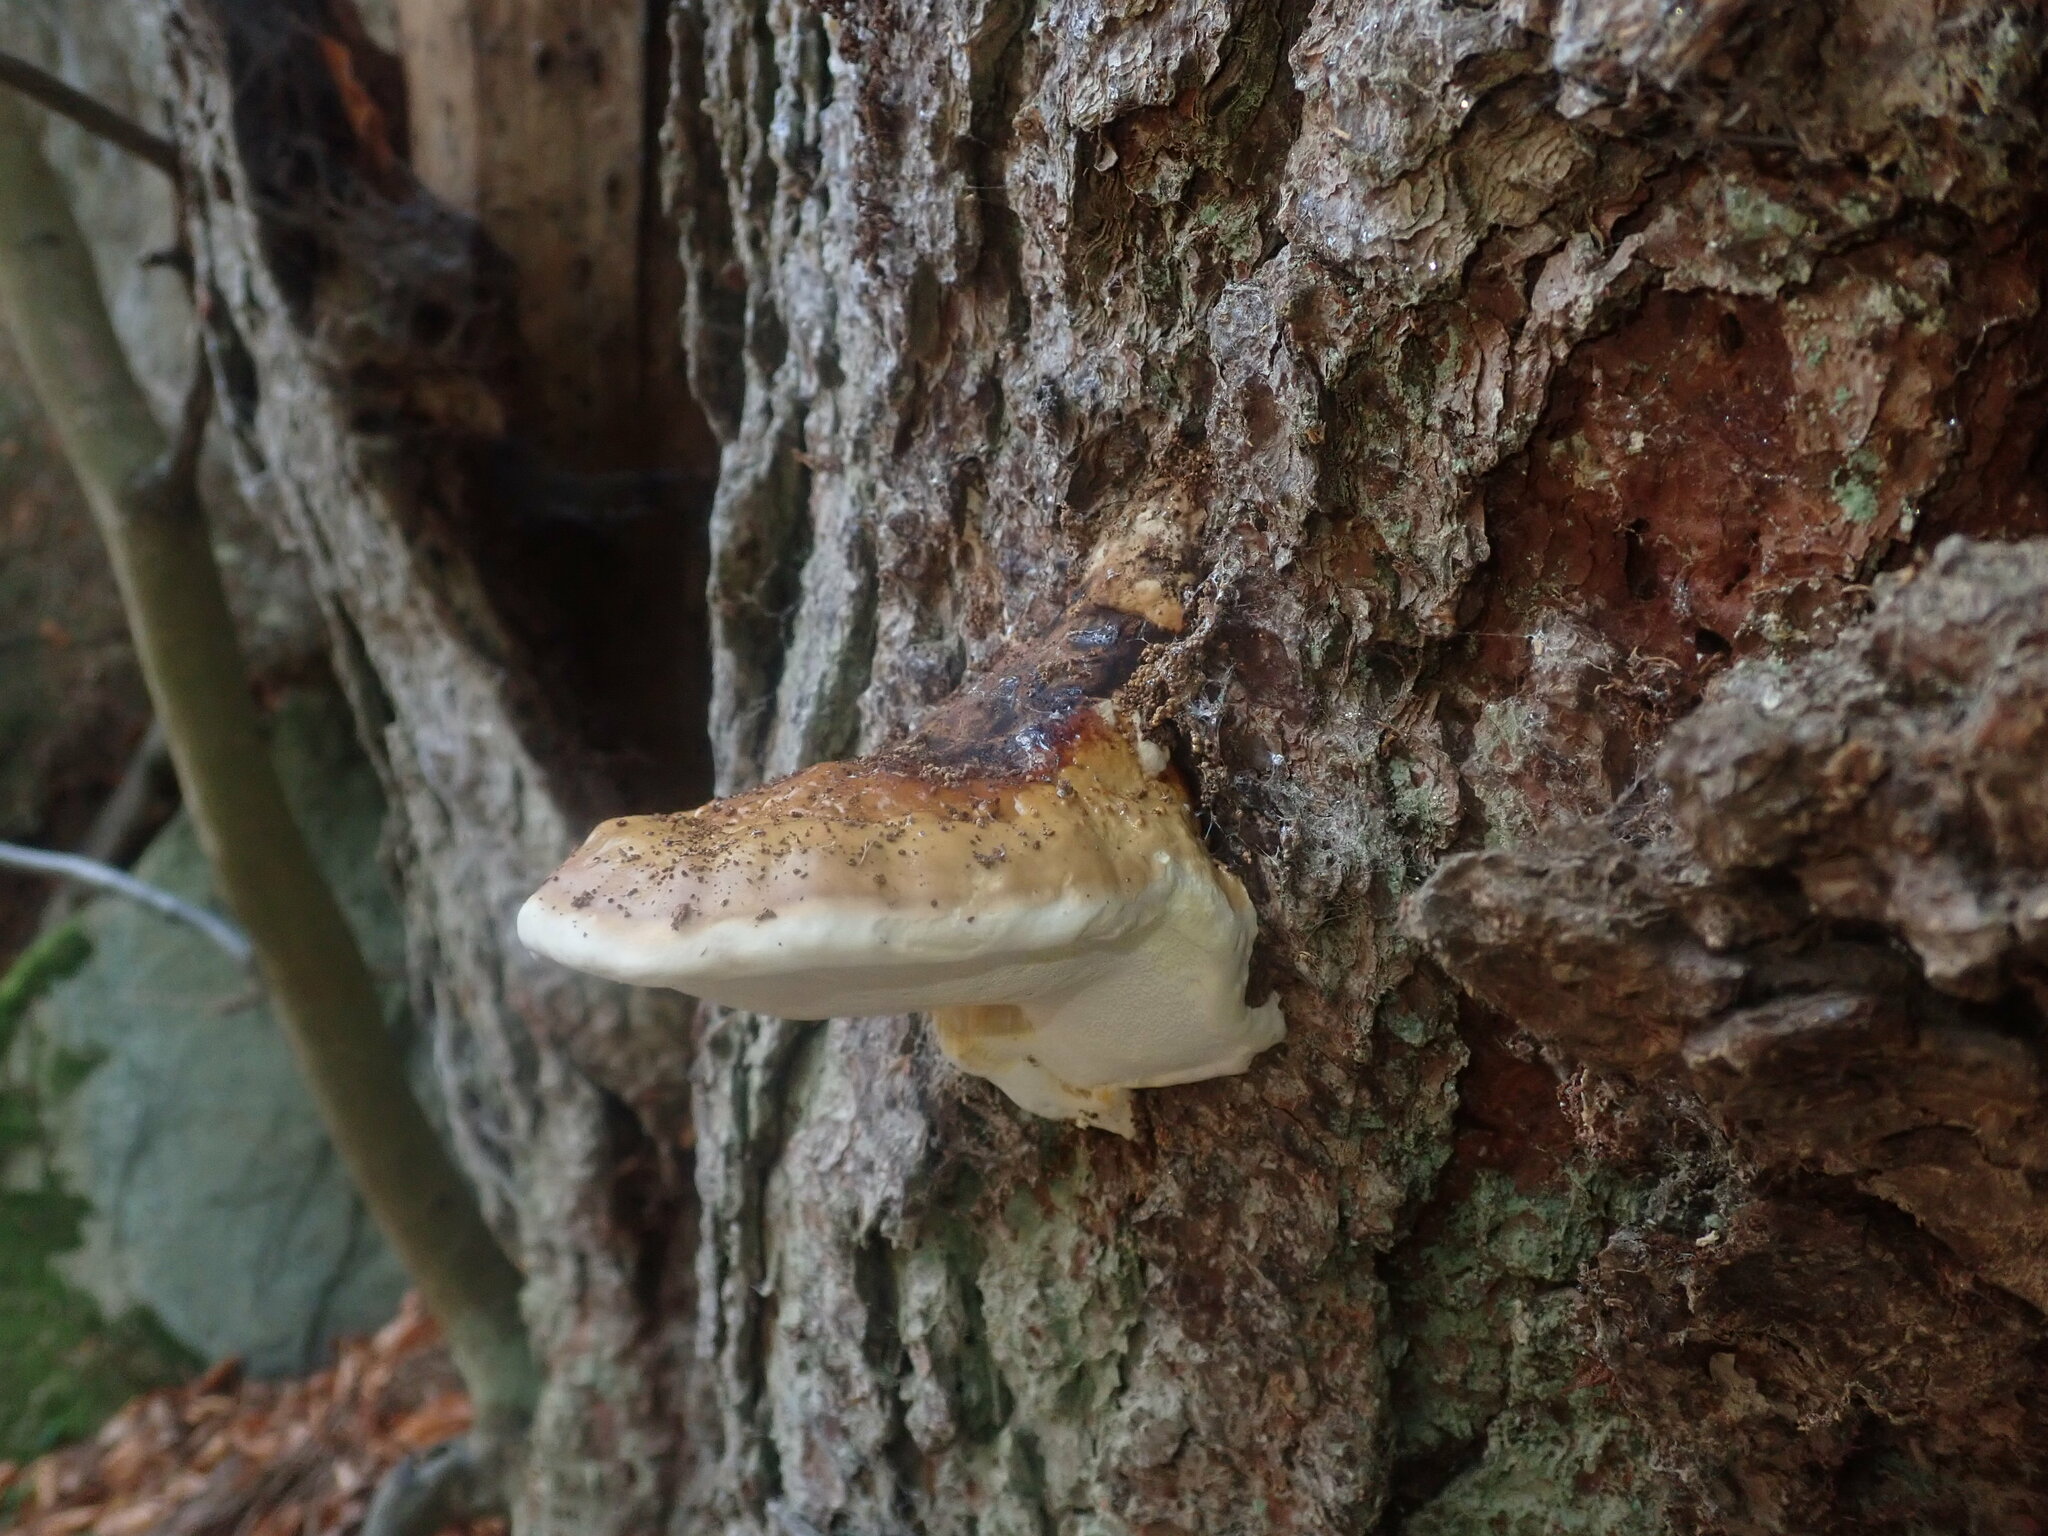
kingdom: Fungi
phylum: Basidiomycota
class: Agaricomycetes
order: Polyporales
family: Fomitopsidaceae
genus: Fomitopsis
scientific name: Fomitopsis pinicola
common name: Red-belted bracket
